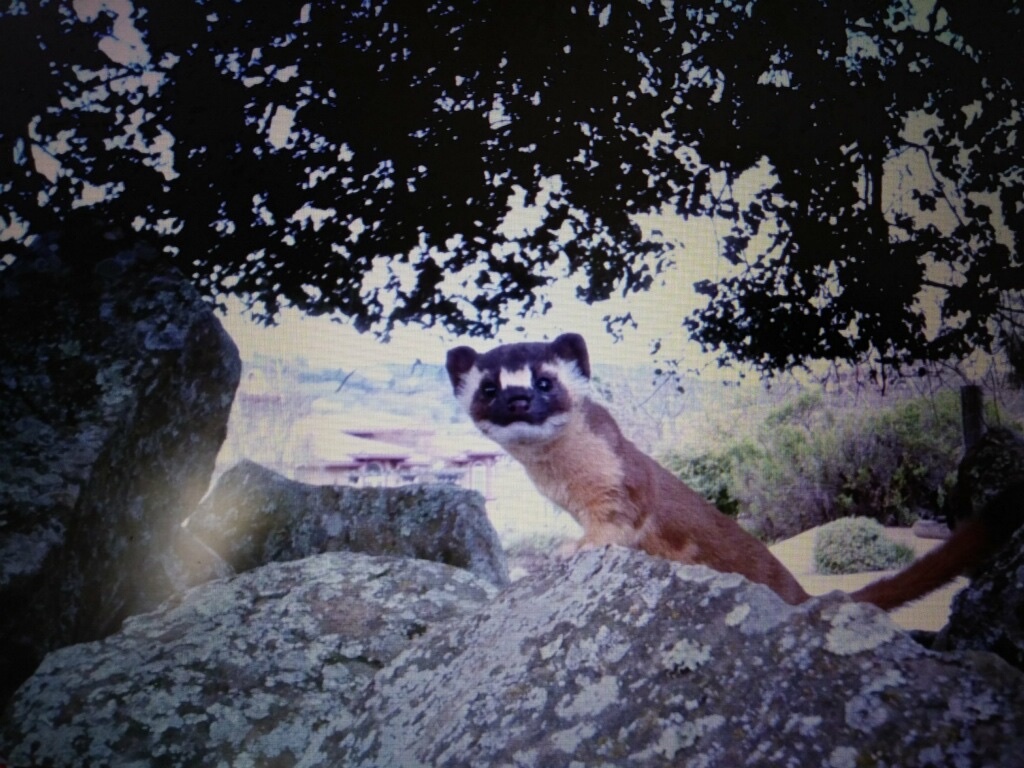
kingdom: Animalia
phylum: Chordata
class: Mammalia
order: Carnivora
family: Mustelidae
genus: Mustela
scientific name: Mustela
